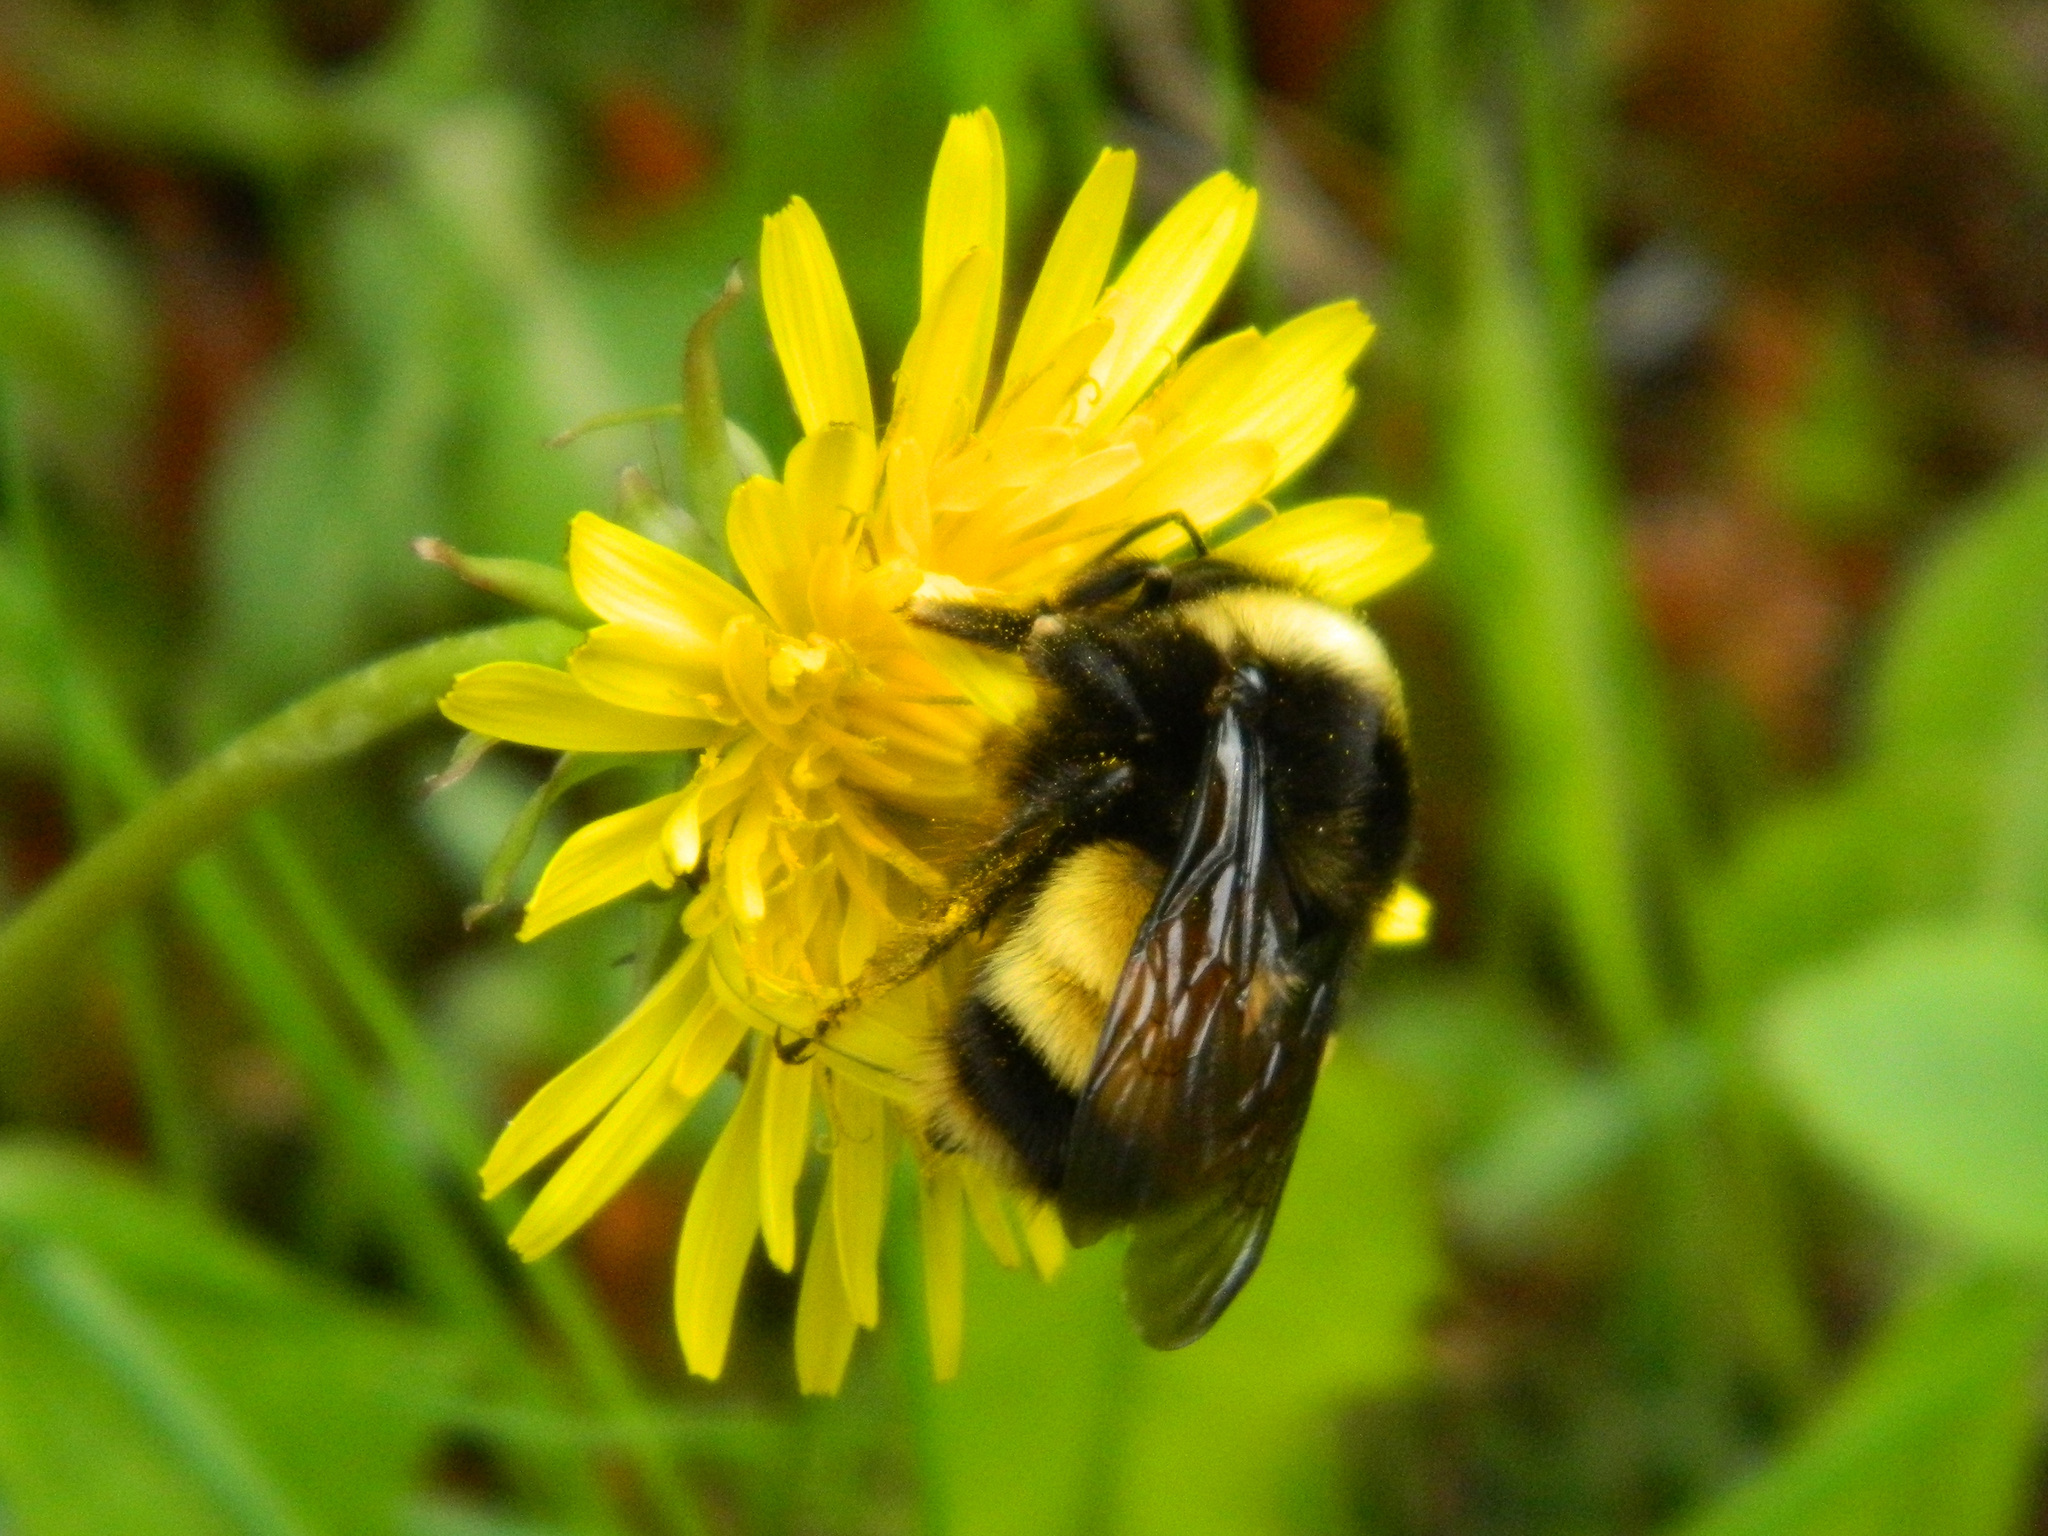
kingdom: Animalia
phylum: Arthropoda
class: Insecta
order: Hymenoptera
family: Apidae
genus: Bombus
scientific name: Bombus terricola
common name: Yellow-banded bumble bee
